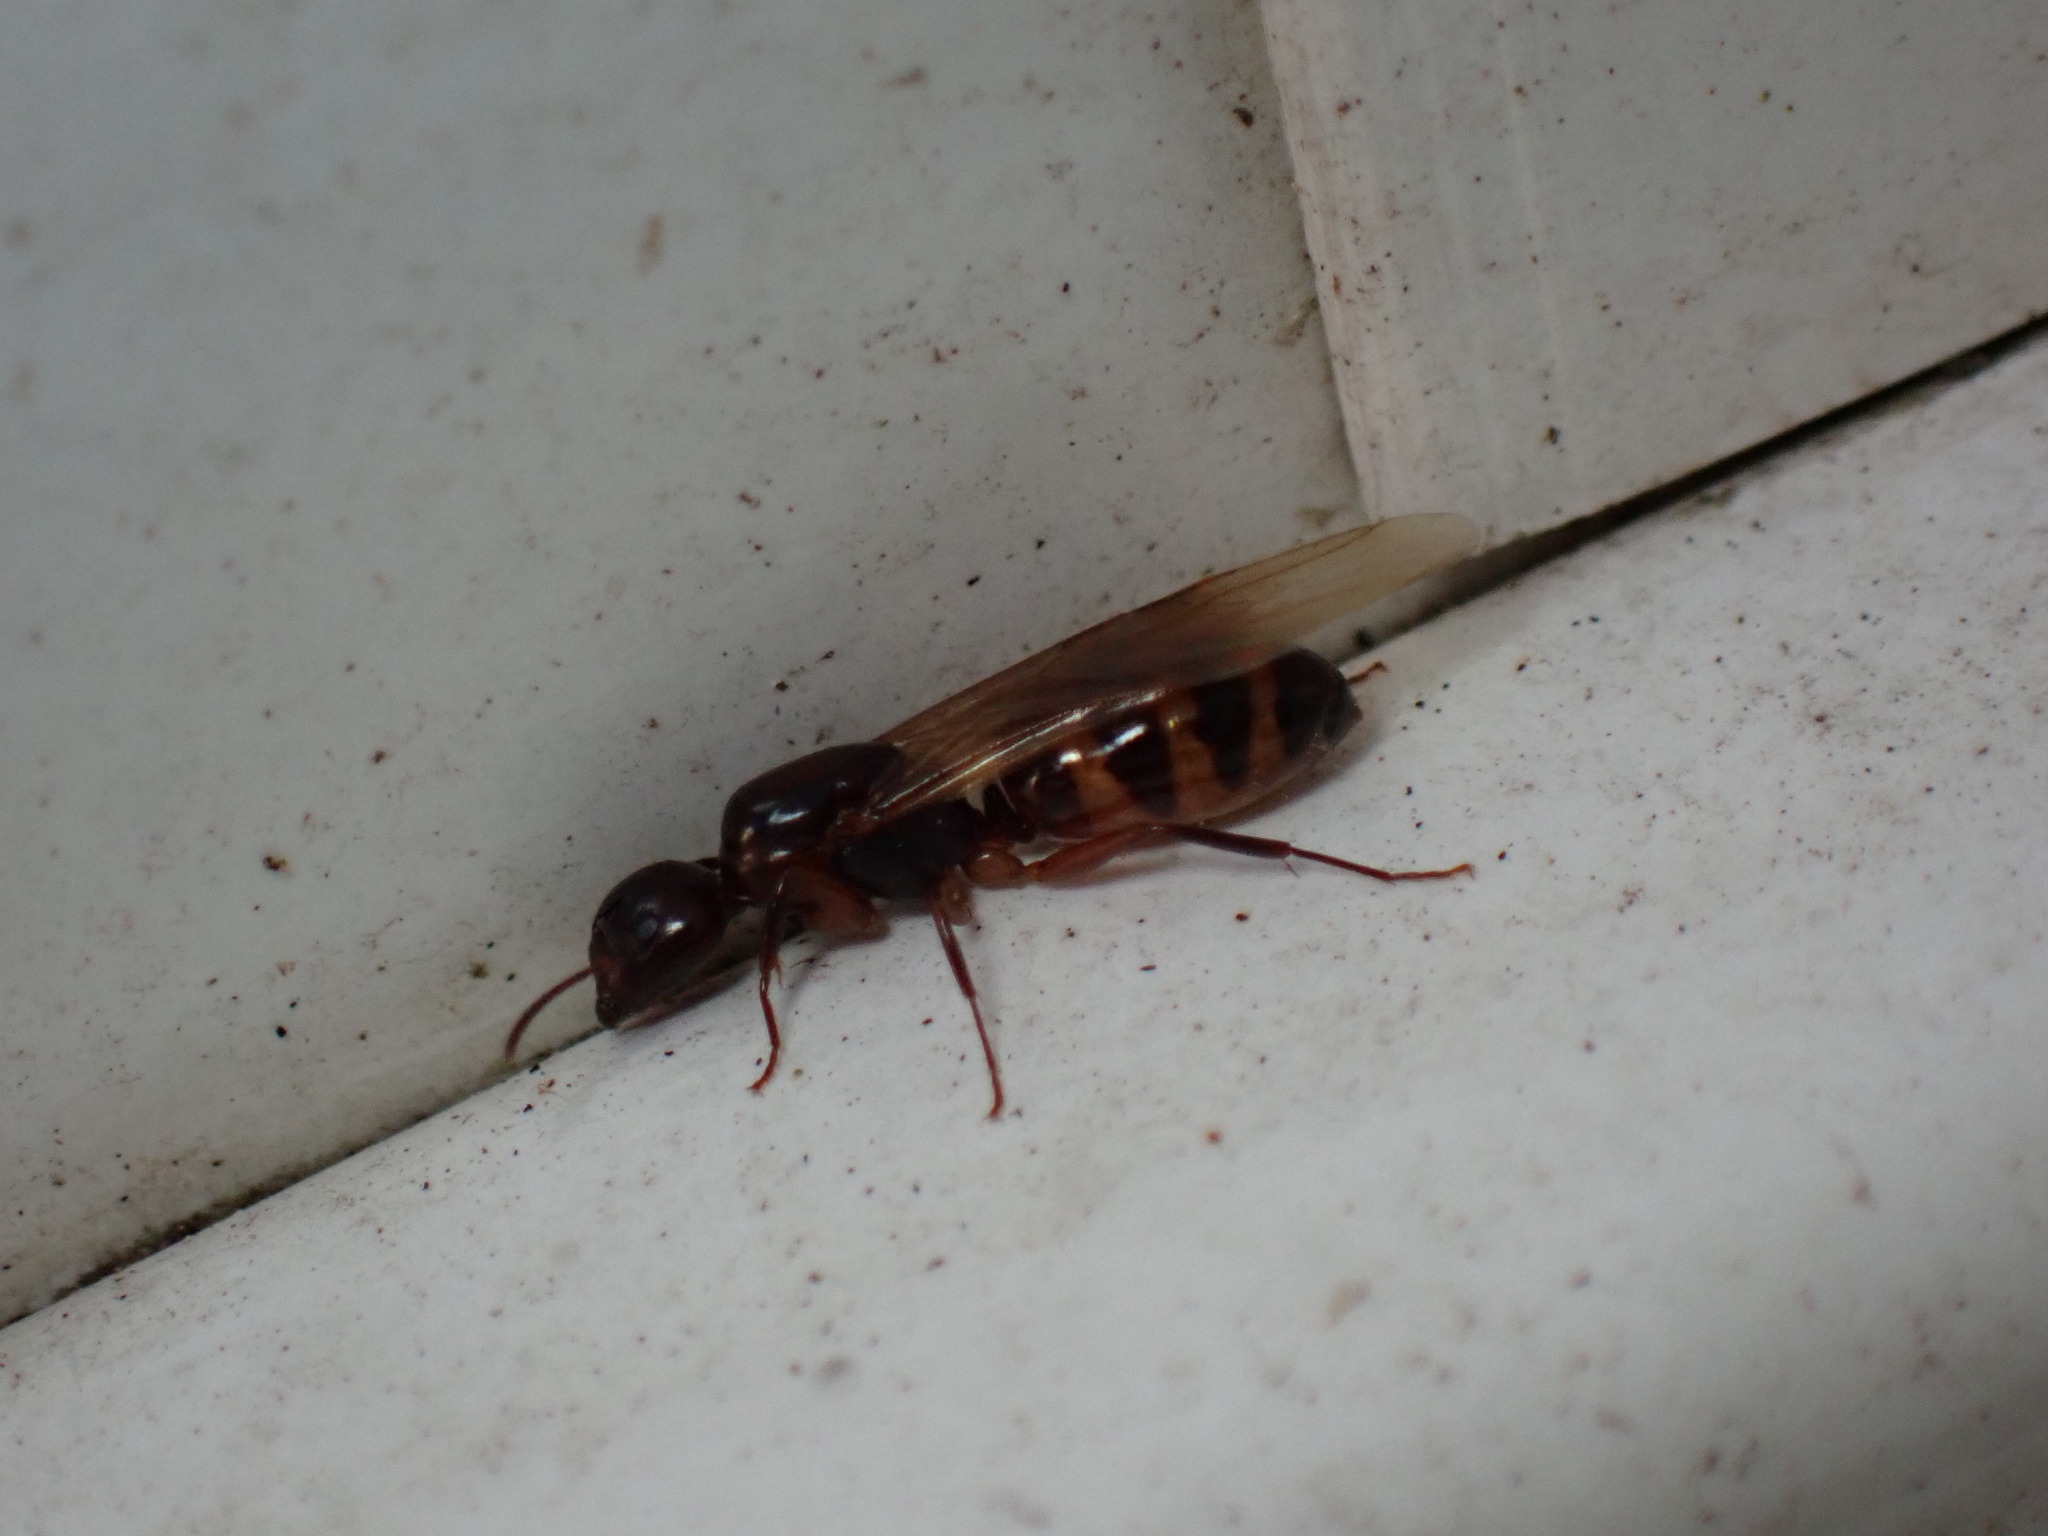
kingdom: Animalia
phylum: Arthropoda
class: Insecta
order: Hymenoptera
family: Formicidae
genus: Camponotus
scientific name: Camponotus subbarbatus
